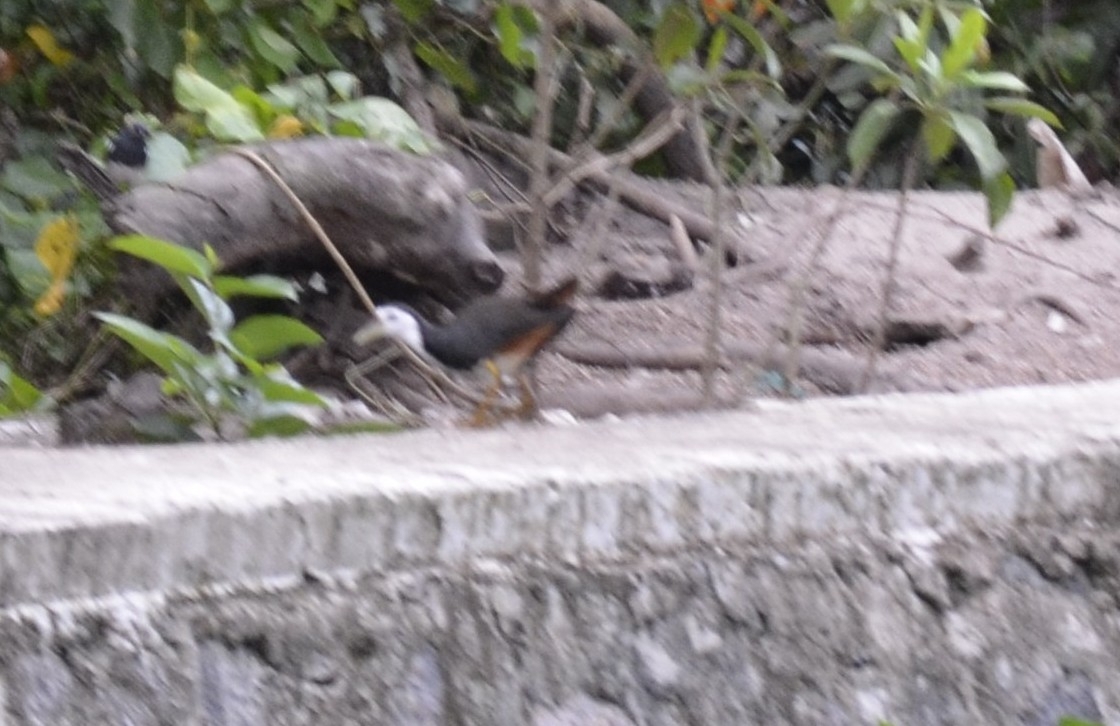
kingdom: Animalia
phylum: Chordata
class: Aves
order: Gruiformes
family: Rallidae
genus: Amaurornis
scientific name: Amaurornis phoenicurus
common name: White-breasted waterhen
